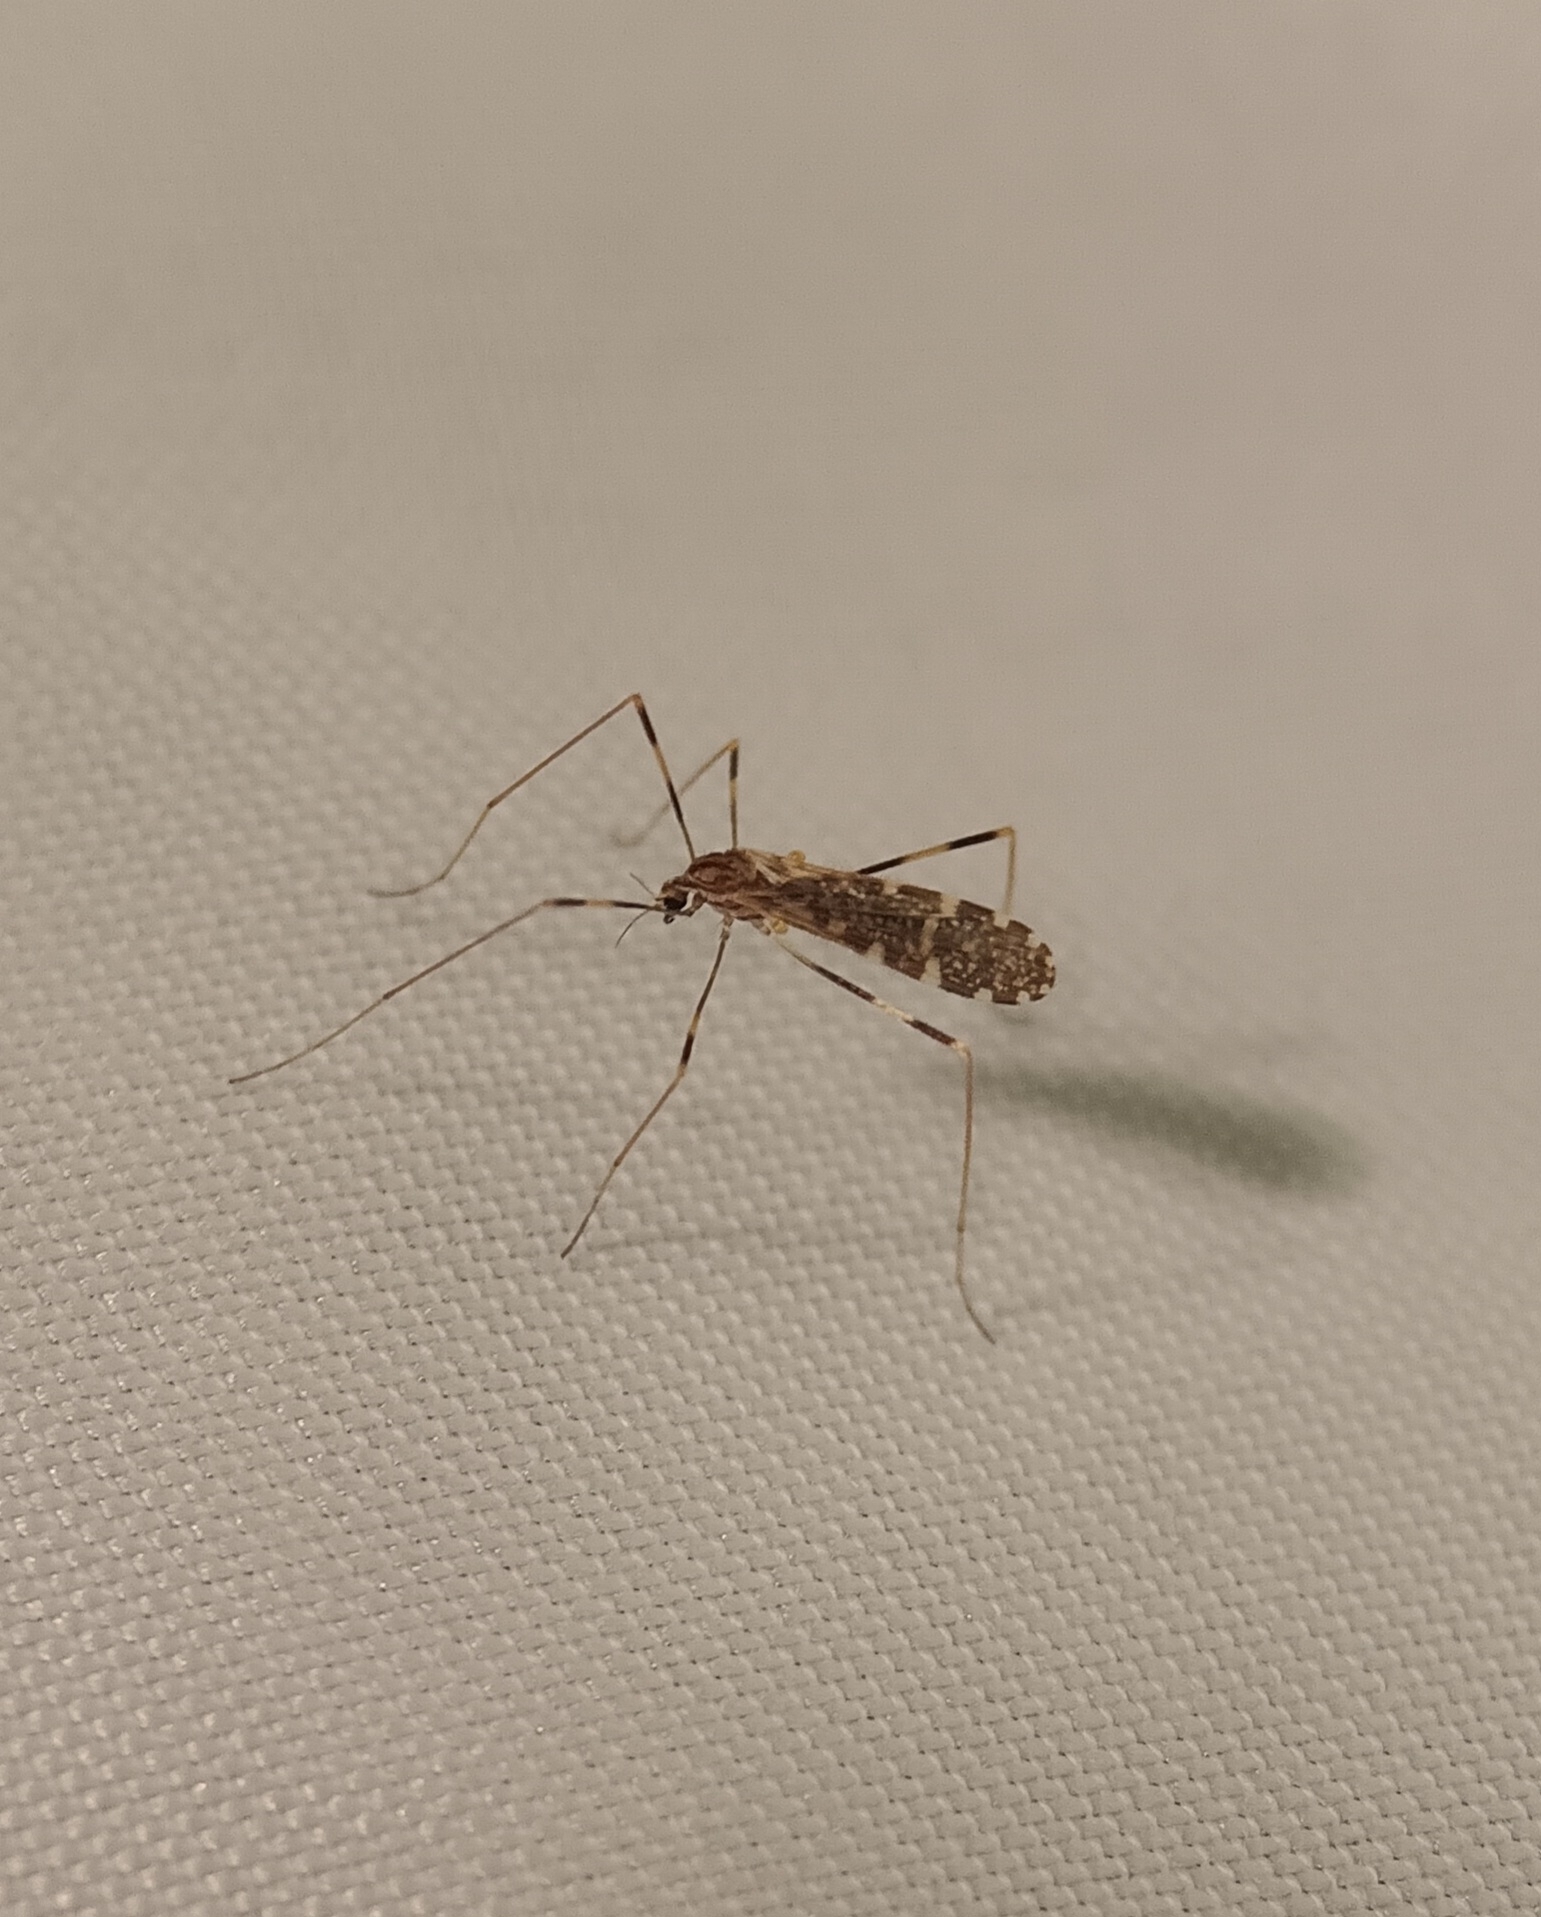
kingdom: Animalia
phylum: Arthropoda
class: Insecta
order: Diptera
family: Limoniidae
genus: Erioptera
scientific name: Erioptera caliptera
